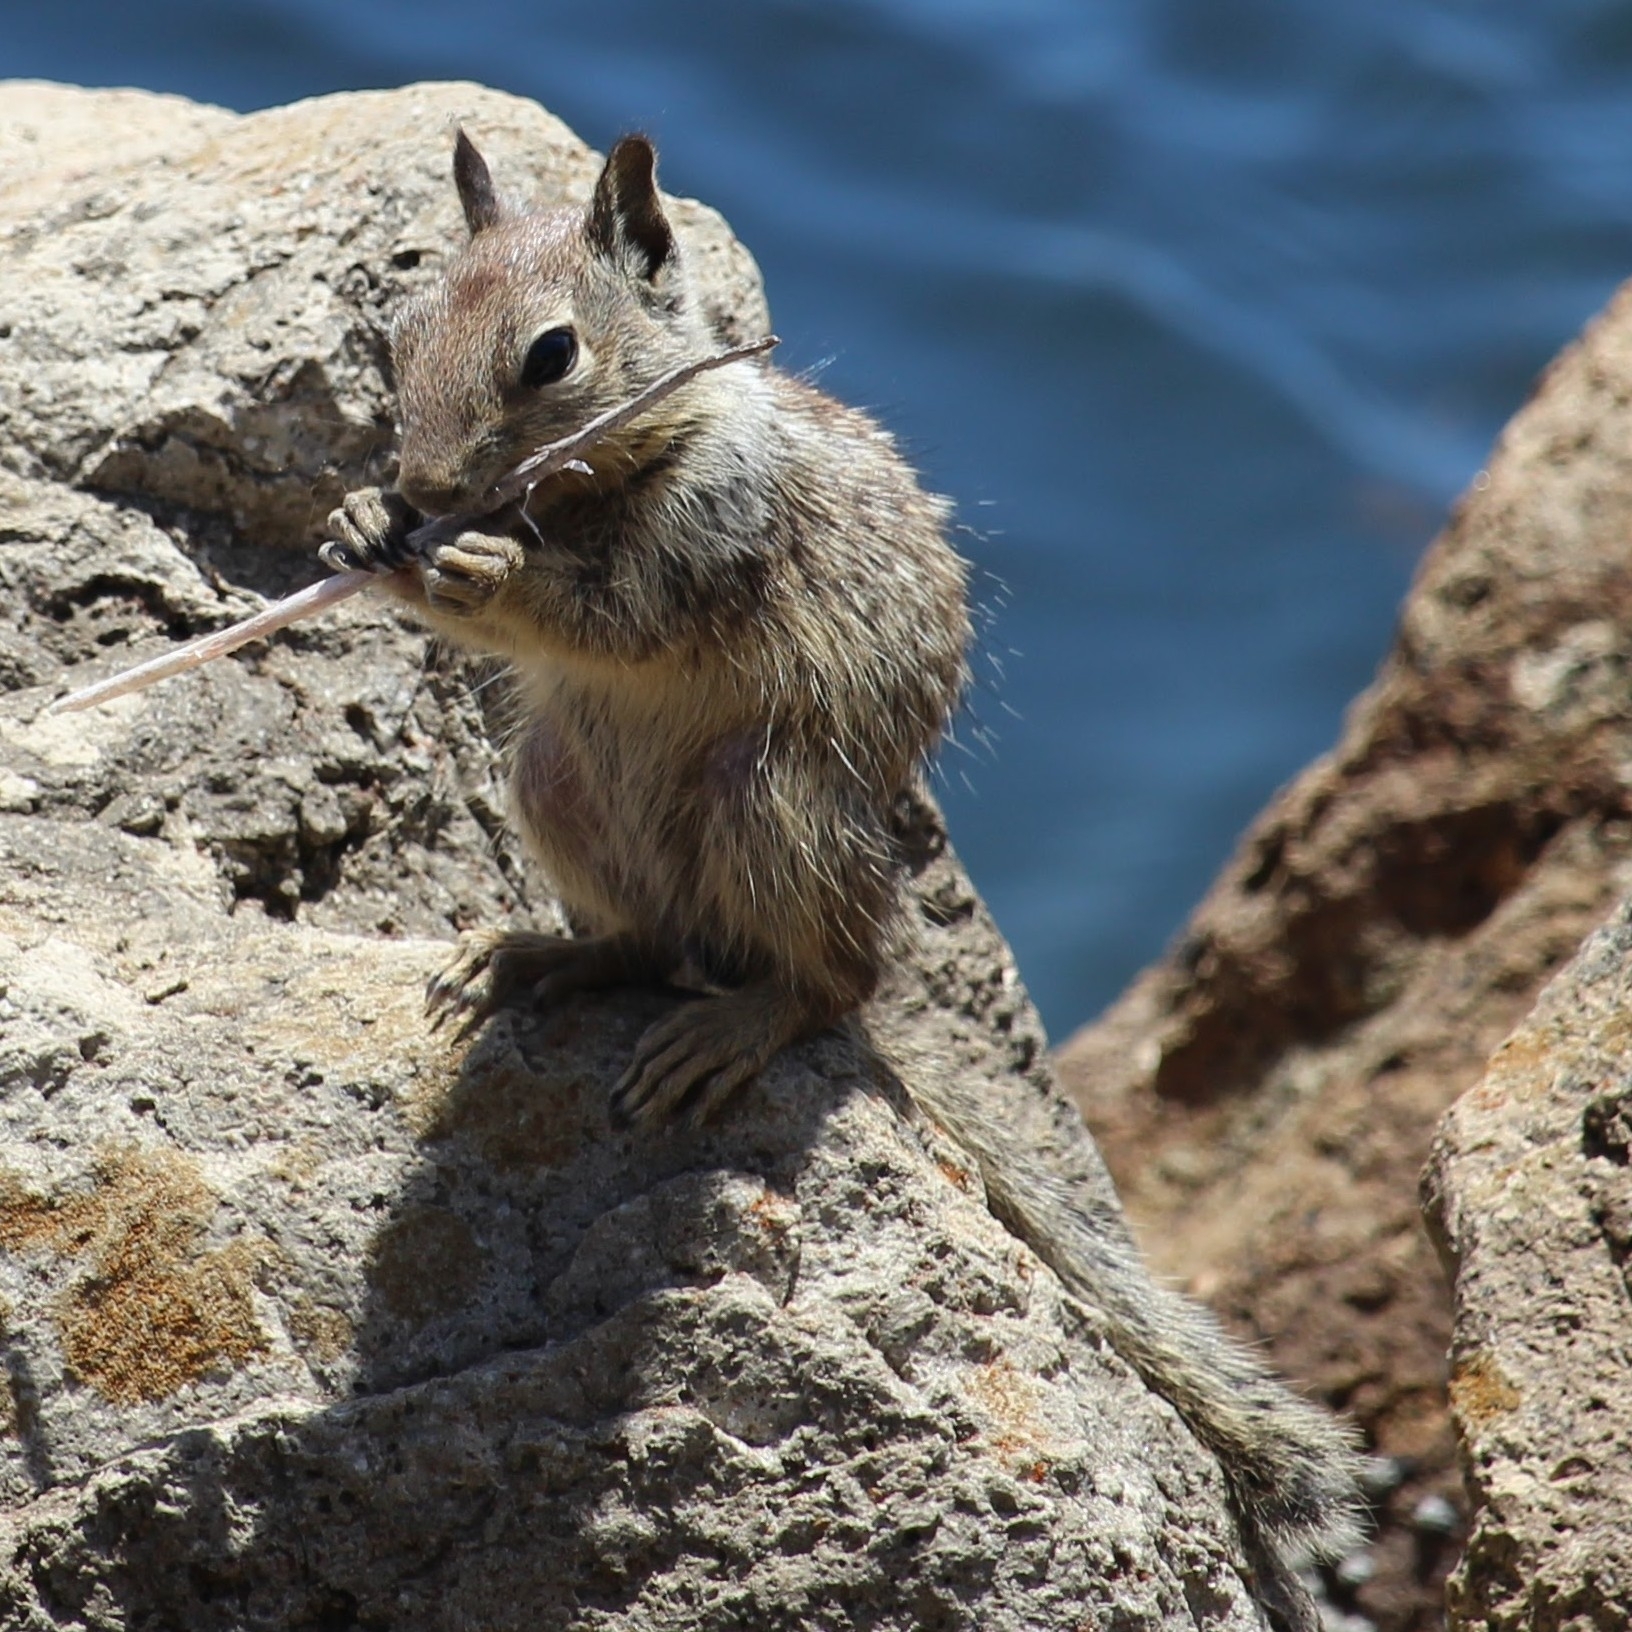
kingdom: Animalia
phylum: Chordata
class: Mammalia
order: Rodentia
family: Sciuridae
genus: Otospermophilus
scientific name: Otospermophilus beecheyi
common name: California ground squirrel
